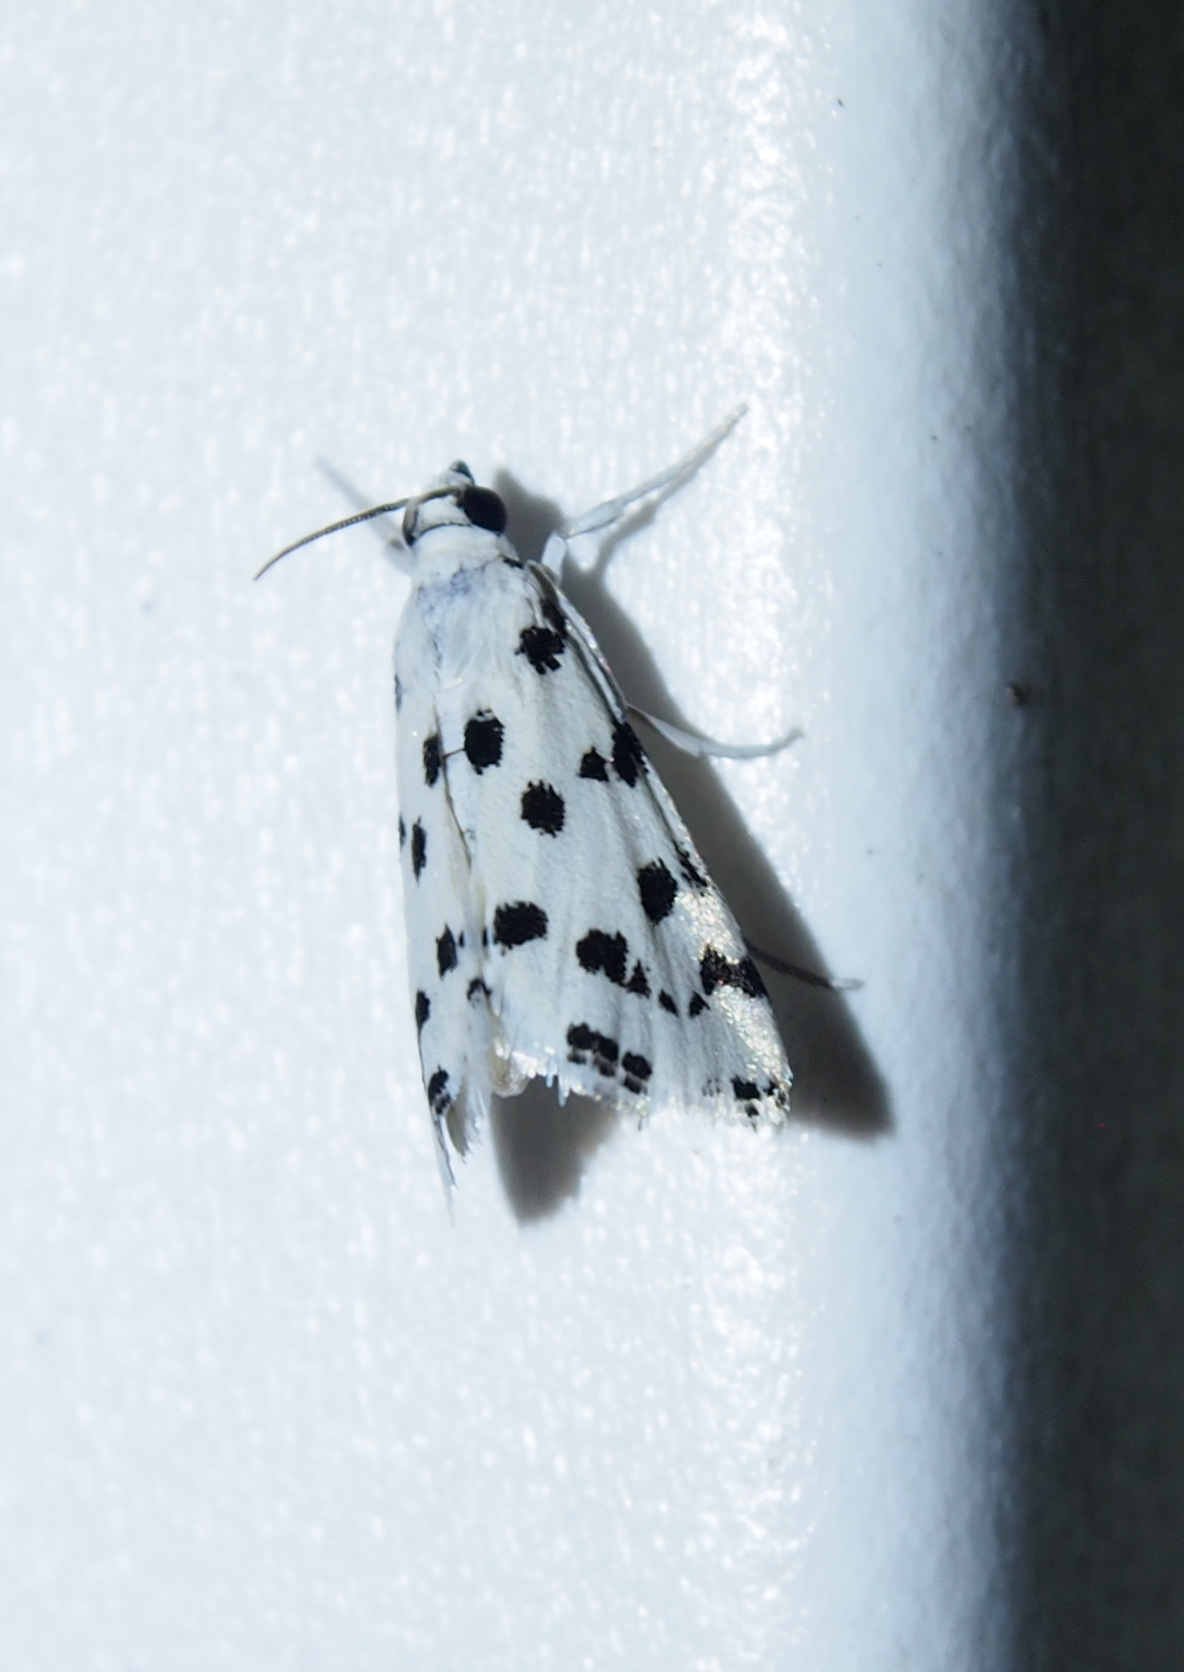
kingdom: Animalia
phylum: Arthropoda
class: Insecta
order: Lepidoptera
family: Crambidae
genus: Eustixia
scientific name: Eustixia pupula
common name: American cabbage pearl
